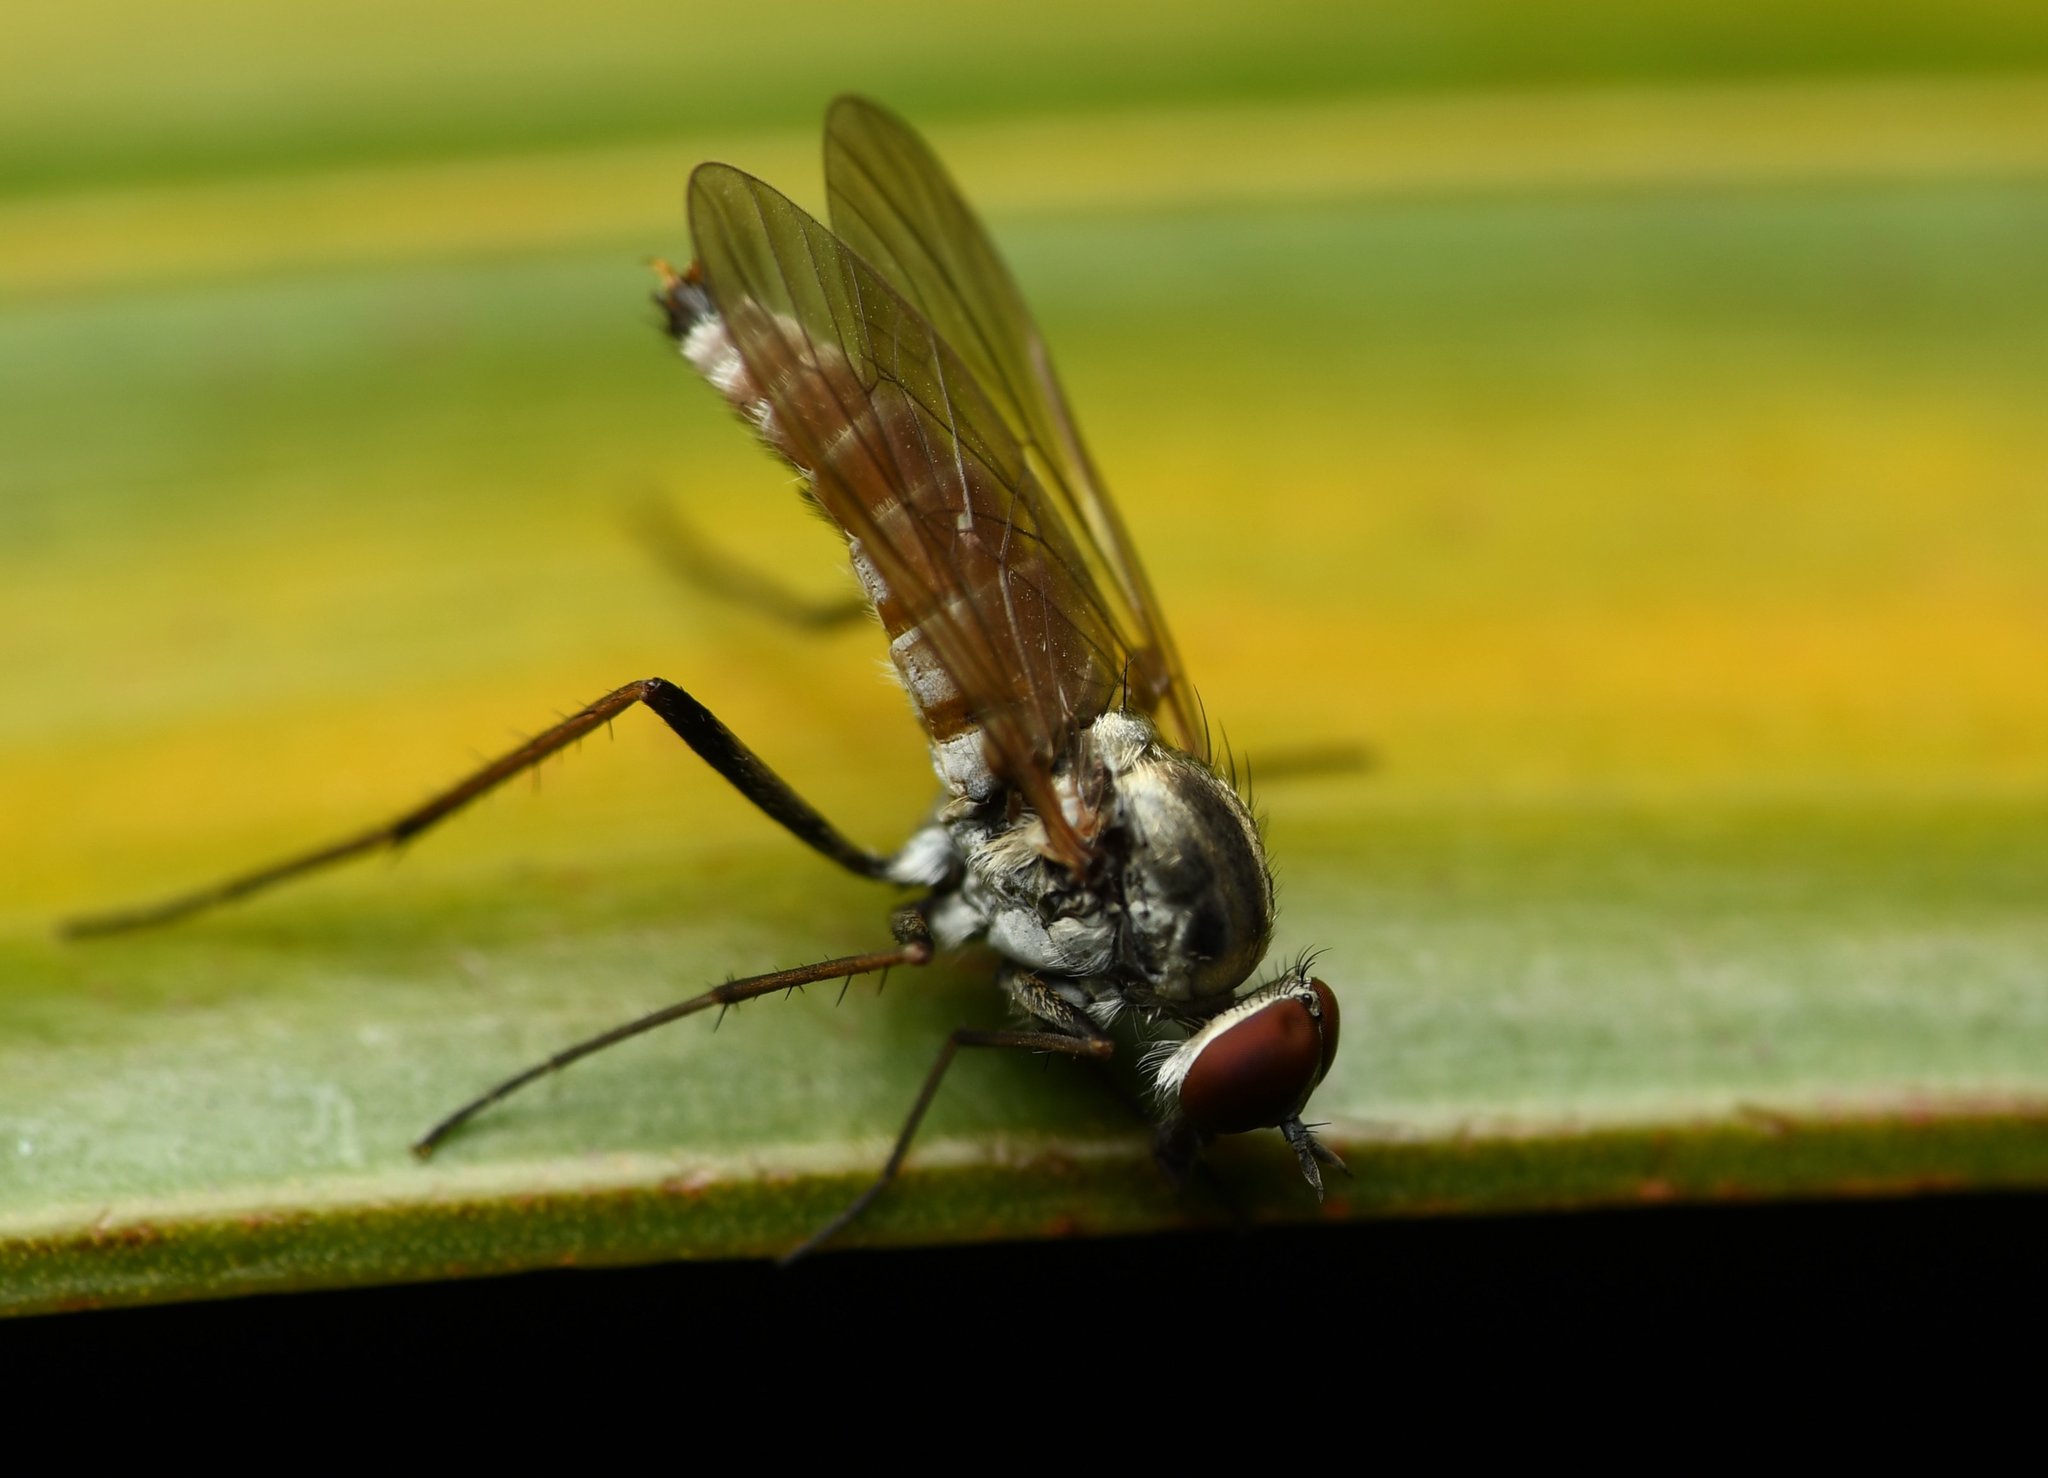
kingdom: Animalia
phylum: Arthropoda
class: Insecta
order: Diptera
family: Therevidae
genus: Penniverpa
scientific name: Penniverpa festina
